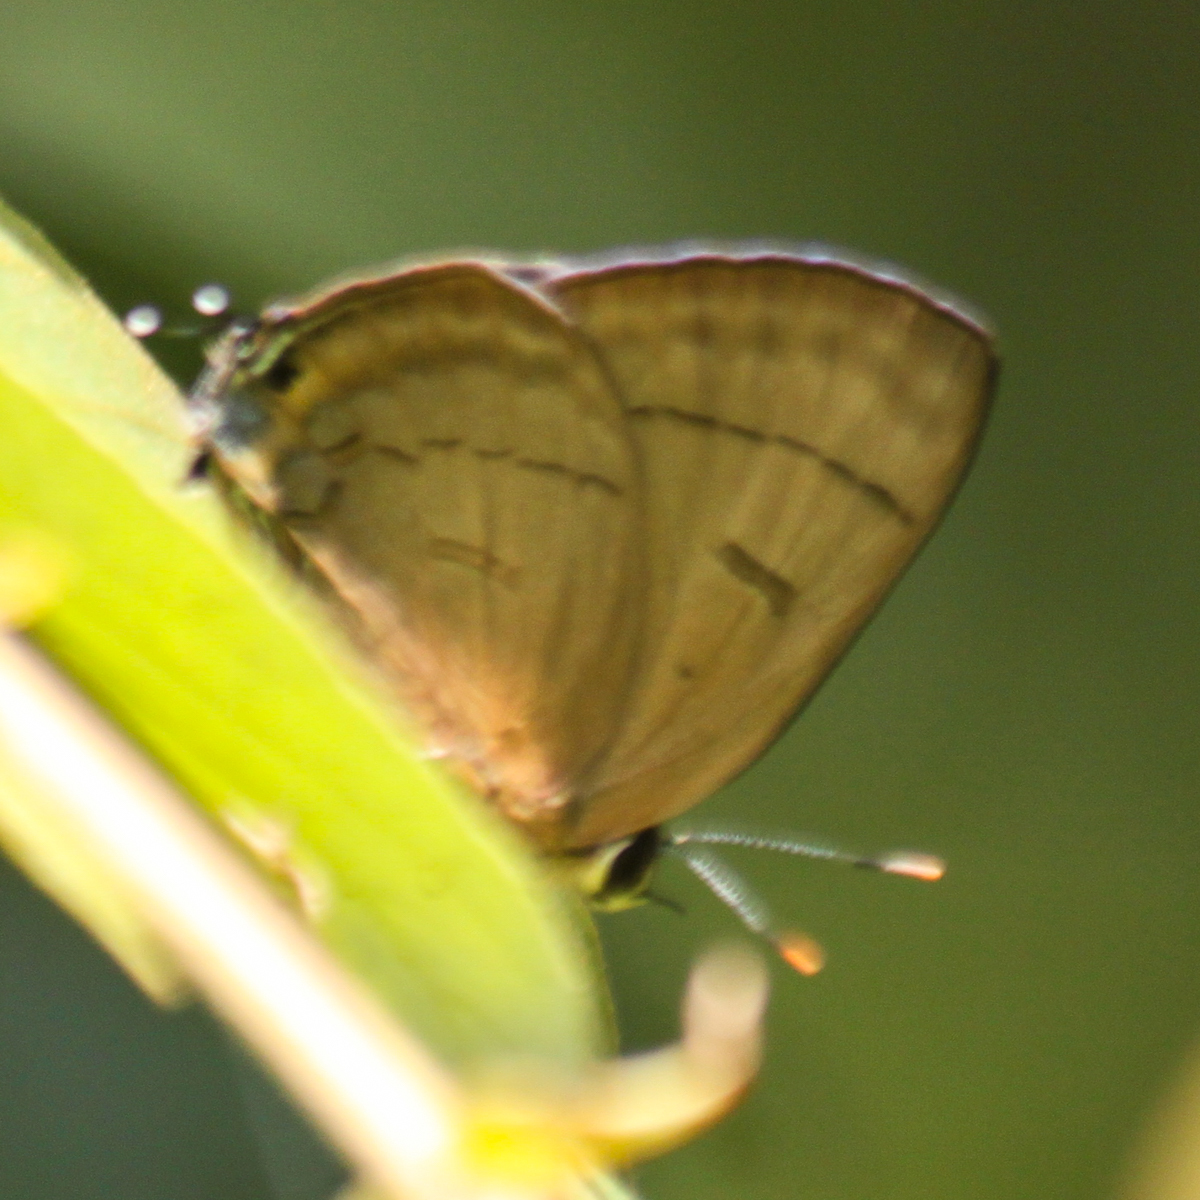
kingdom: Animalia
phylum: Arthropoda
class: Insecta
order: Lepidoptera
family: Lycaenidae
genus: Rapala
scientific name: Rapala pheretima
